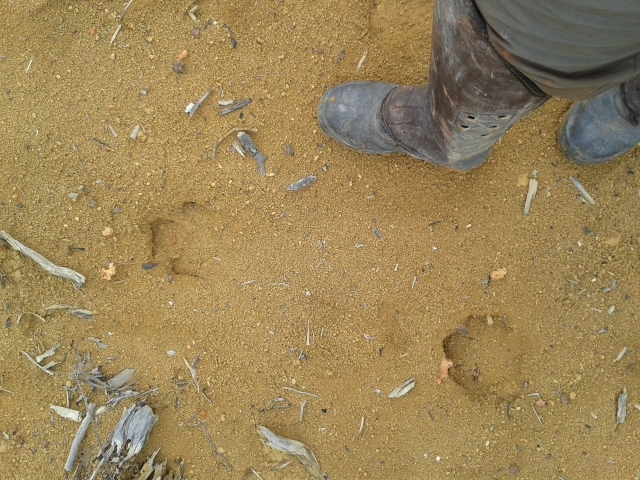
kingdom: Animalia
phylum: Chordata
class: Mammalia
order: Perissodactyla
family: Tapiridae
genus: Tapirus
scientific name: Tapirus terrestris
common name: Brazilian tapir
